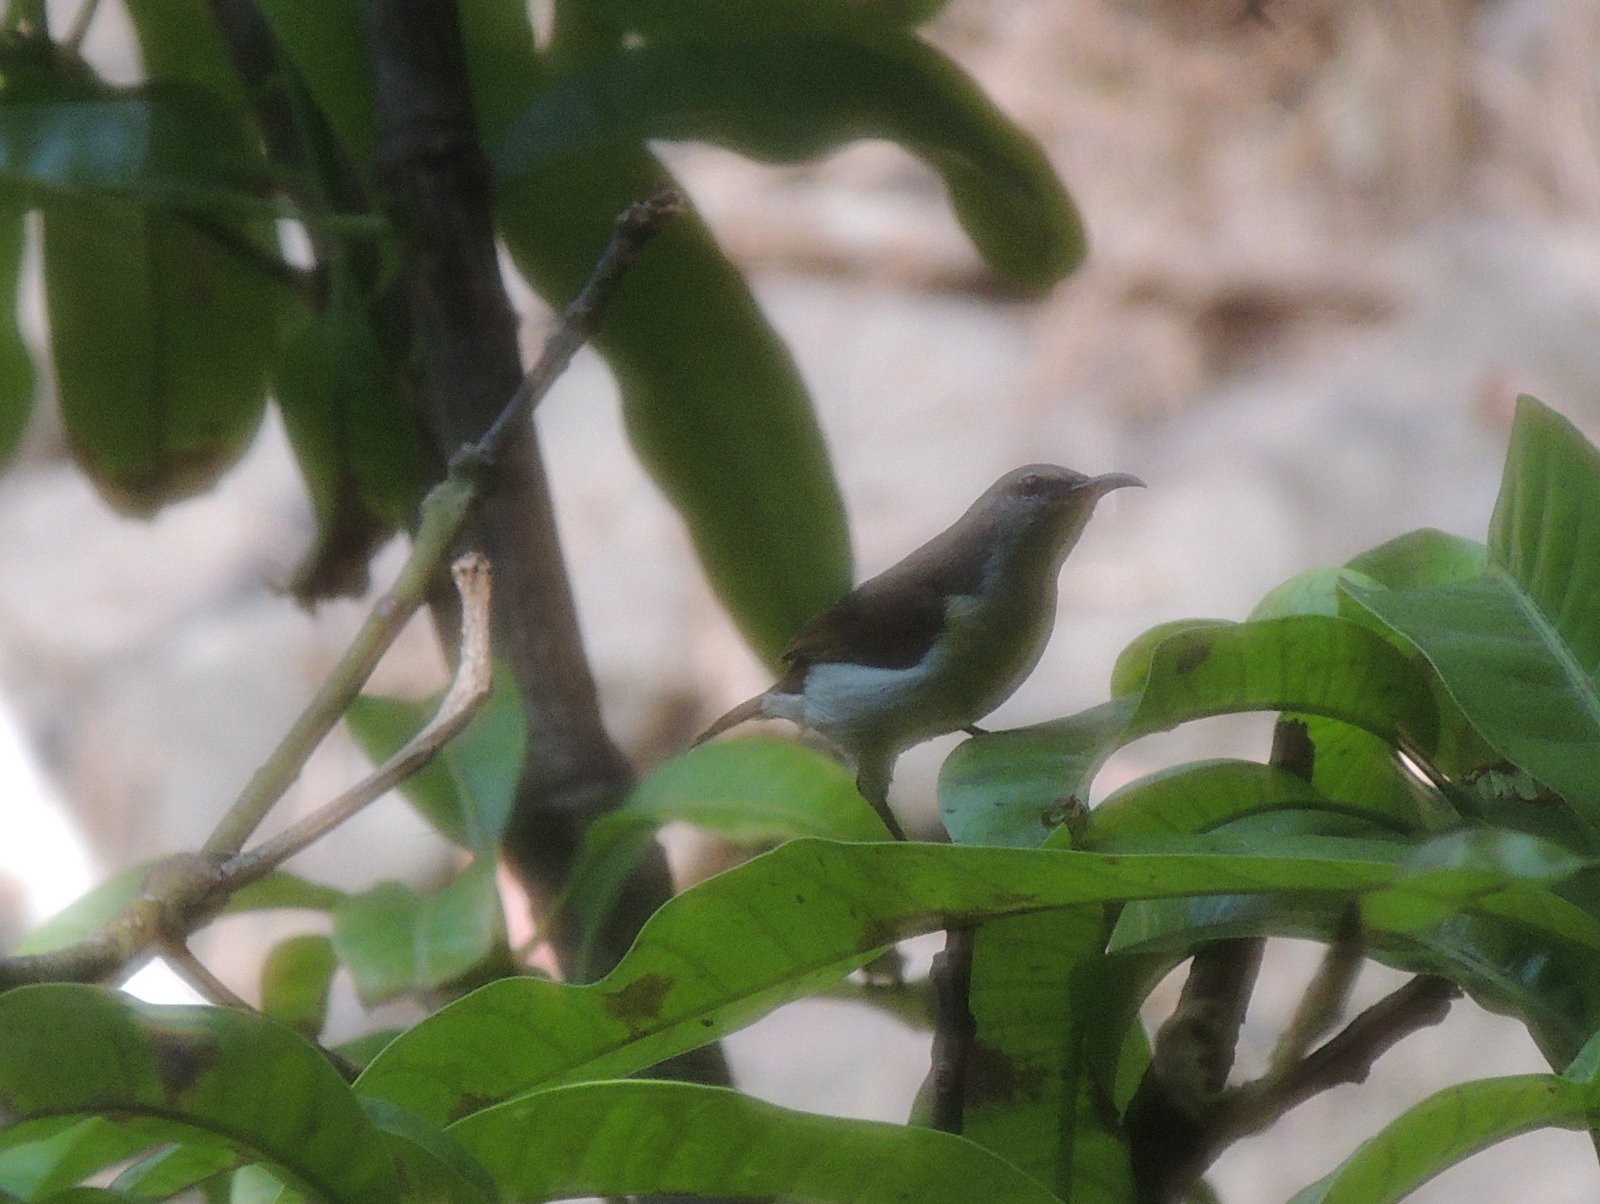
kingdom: Animalia
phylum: Chordata
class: Aves
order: Passeriformes
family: Nectariniidae
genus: Leptocoma
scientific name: Leptocoma zeylonica
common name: Purple-rumped sunbird
